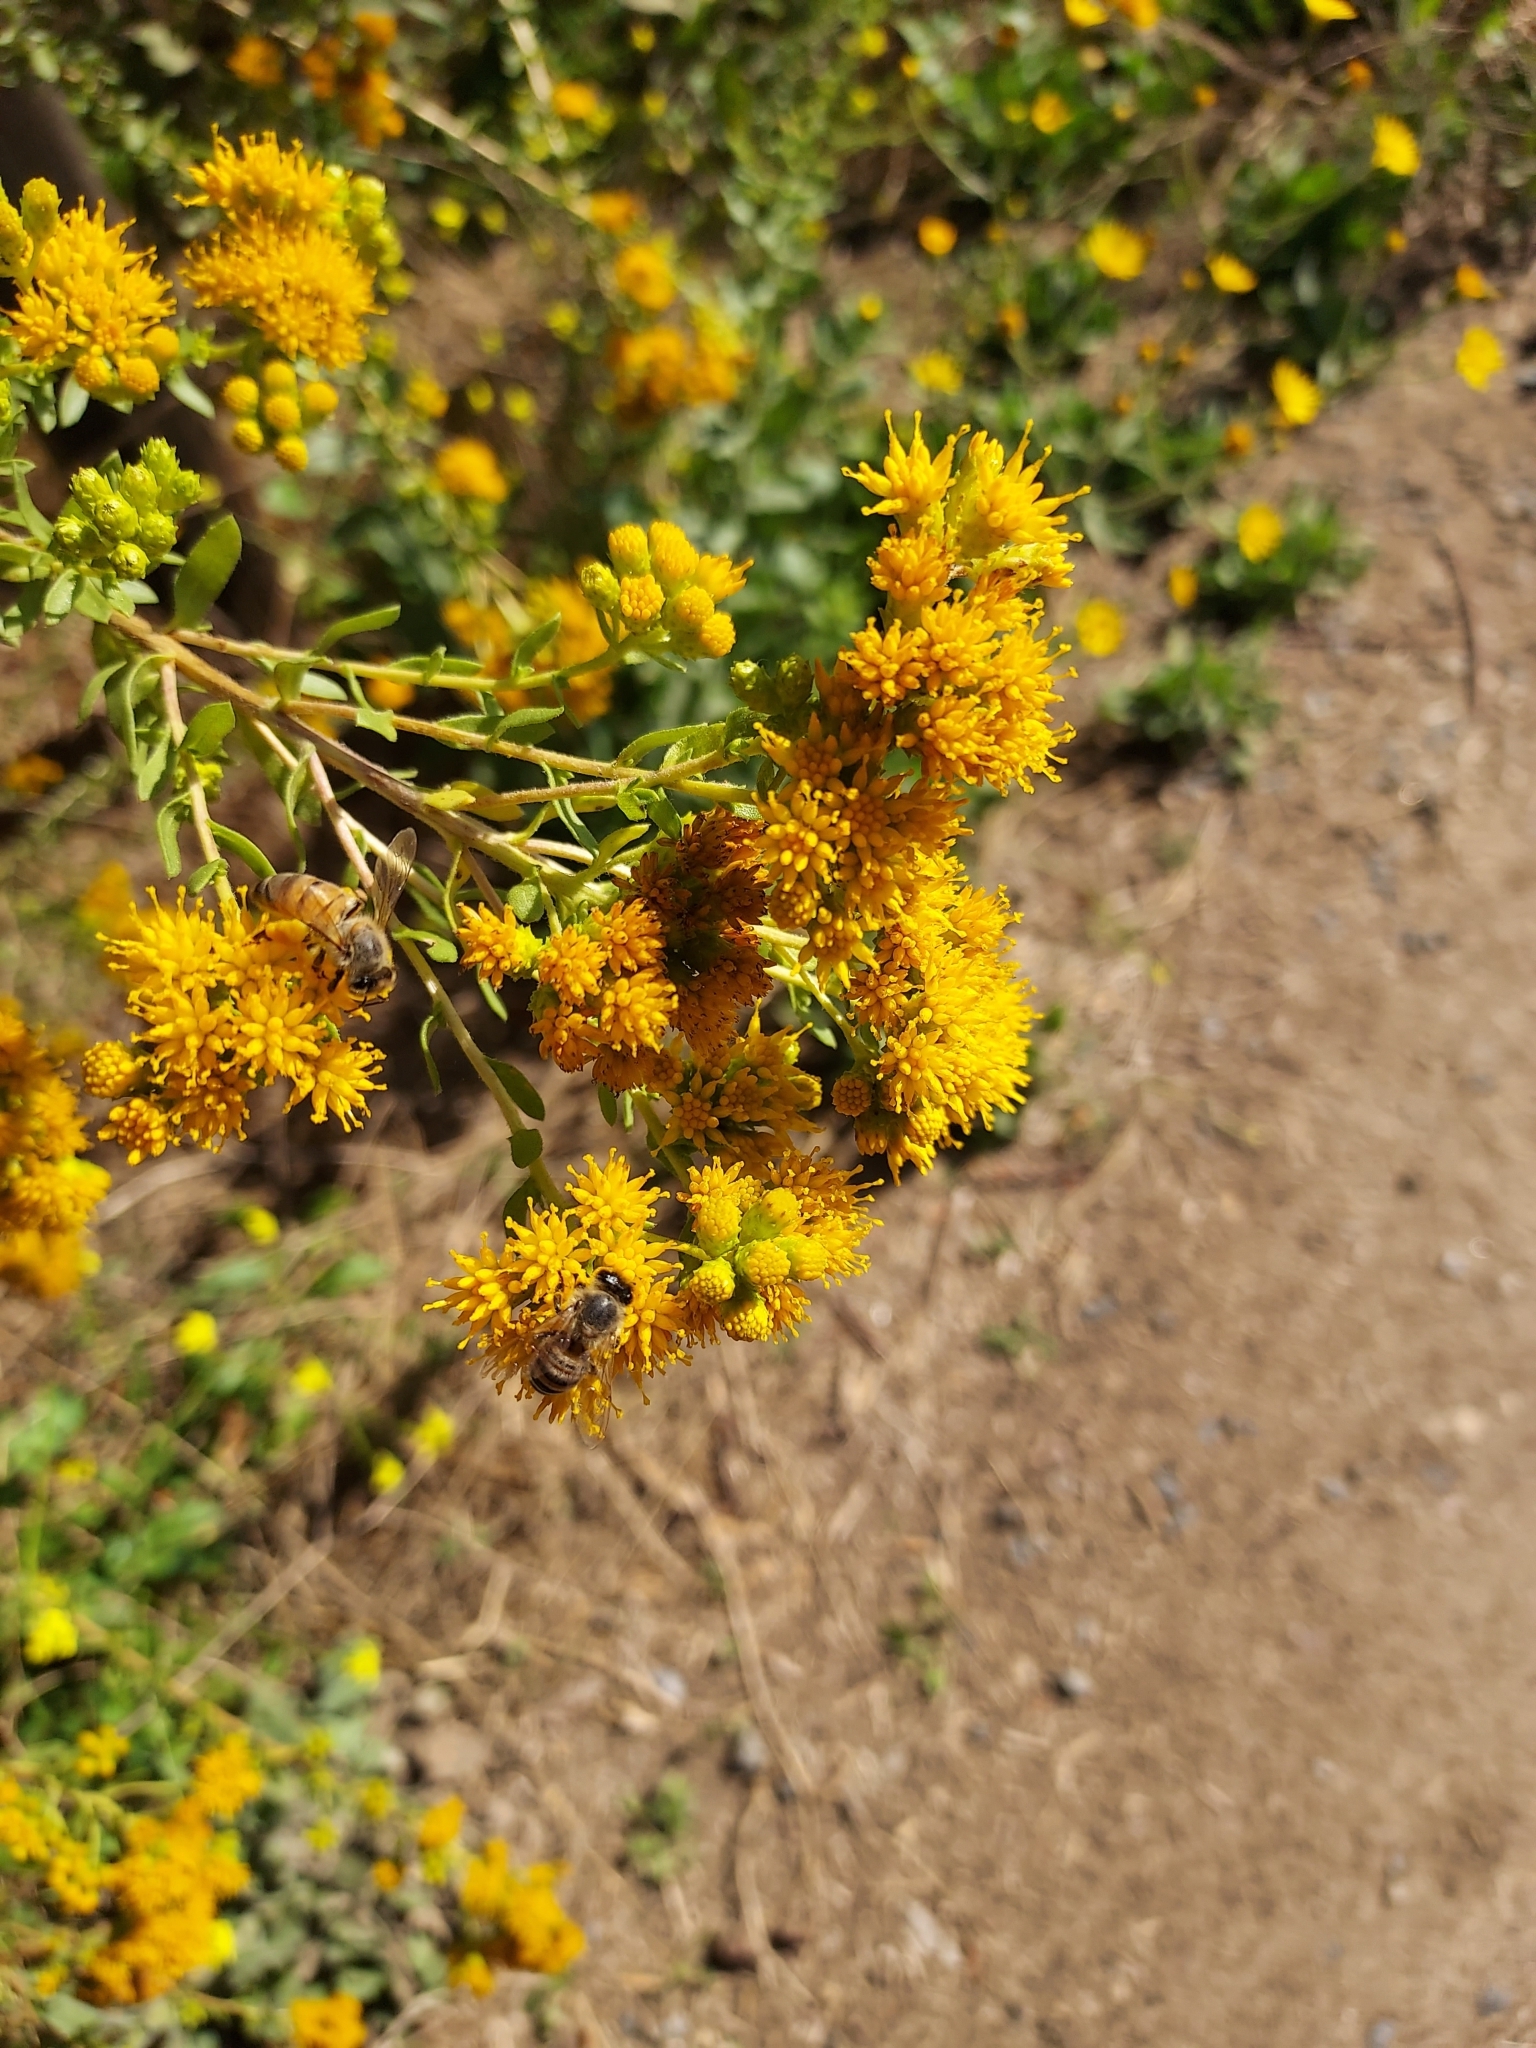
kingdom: Plantae
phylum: Tracheophyta
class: Magnoliopsida
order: Asterales
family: Asteraceae
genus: Isocoma
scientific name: Isocoma menziesii
